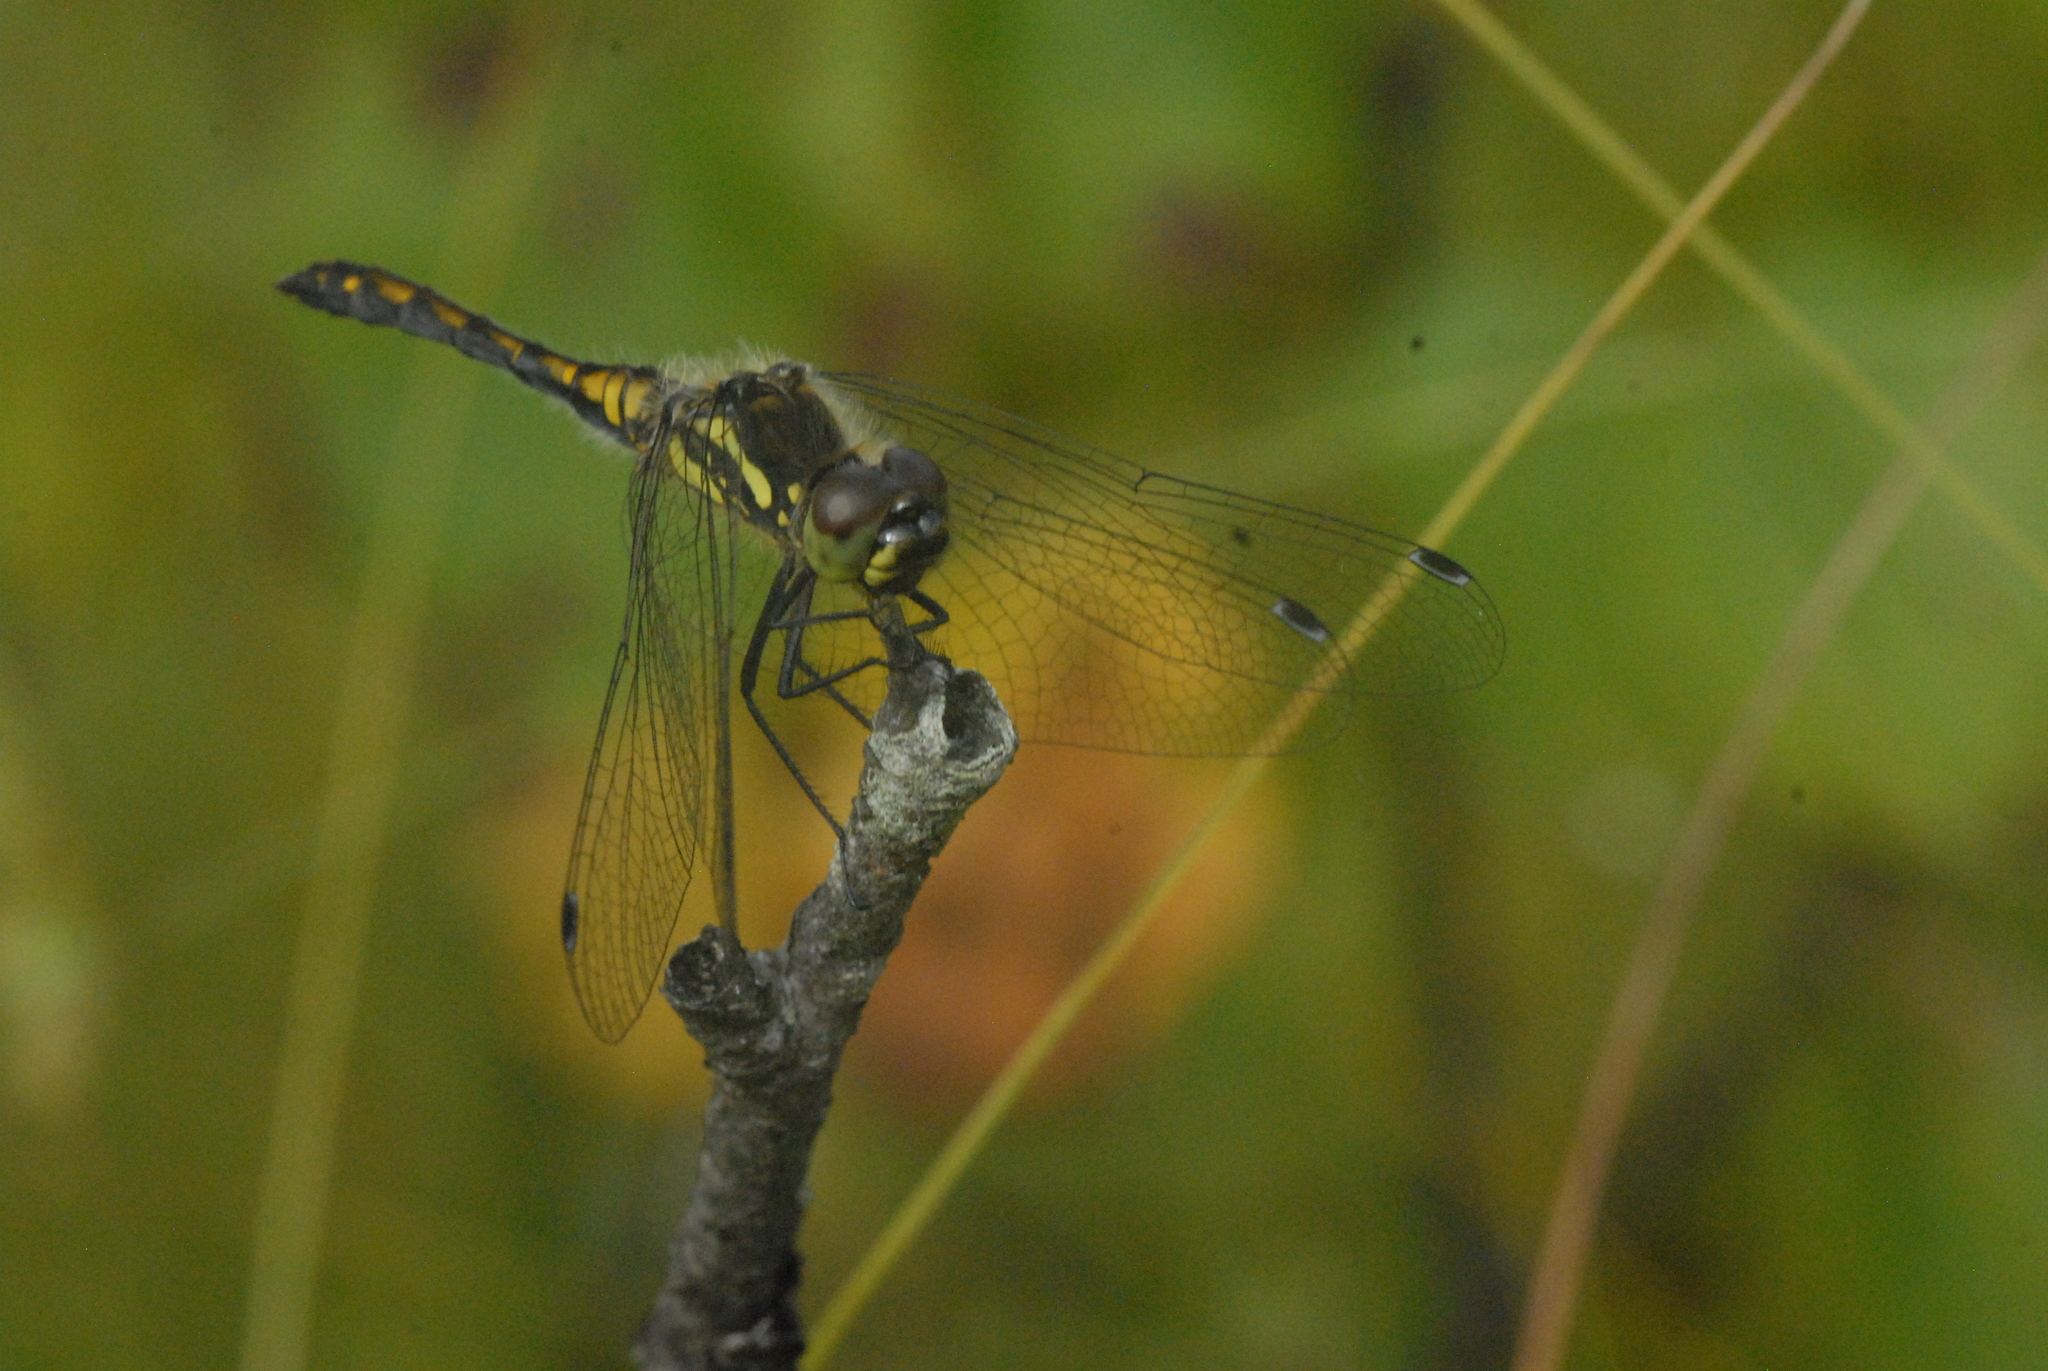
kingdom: Animalia
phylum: Arthropoda
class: Insecta
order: Odonata
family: Libellulidae
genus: Sympetrum
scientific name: Sympetrum danae
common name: Black darter
